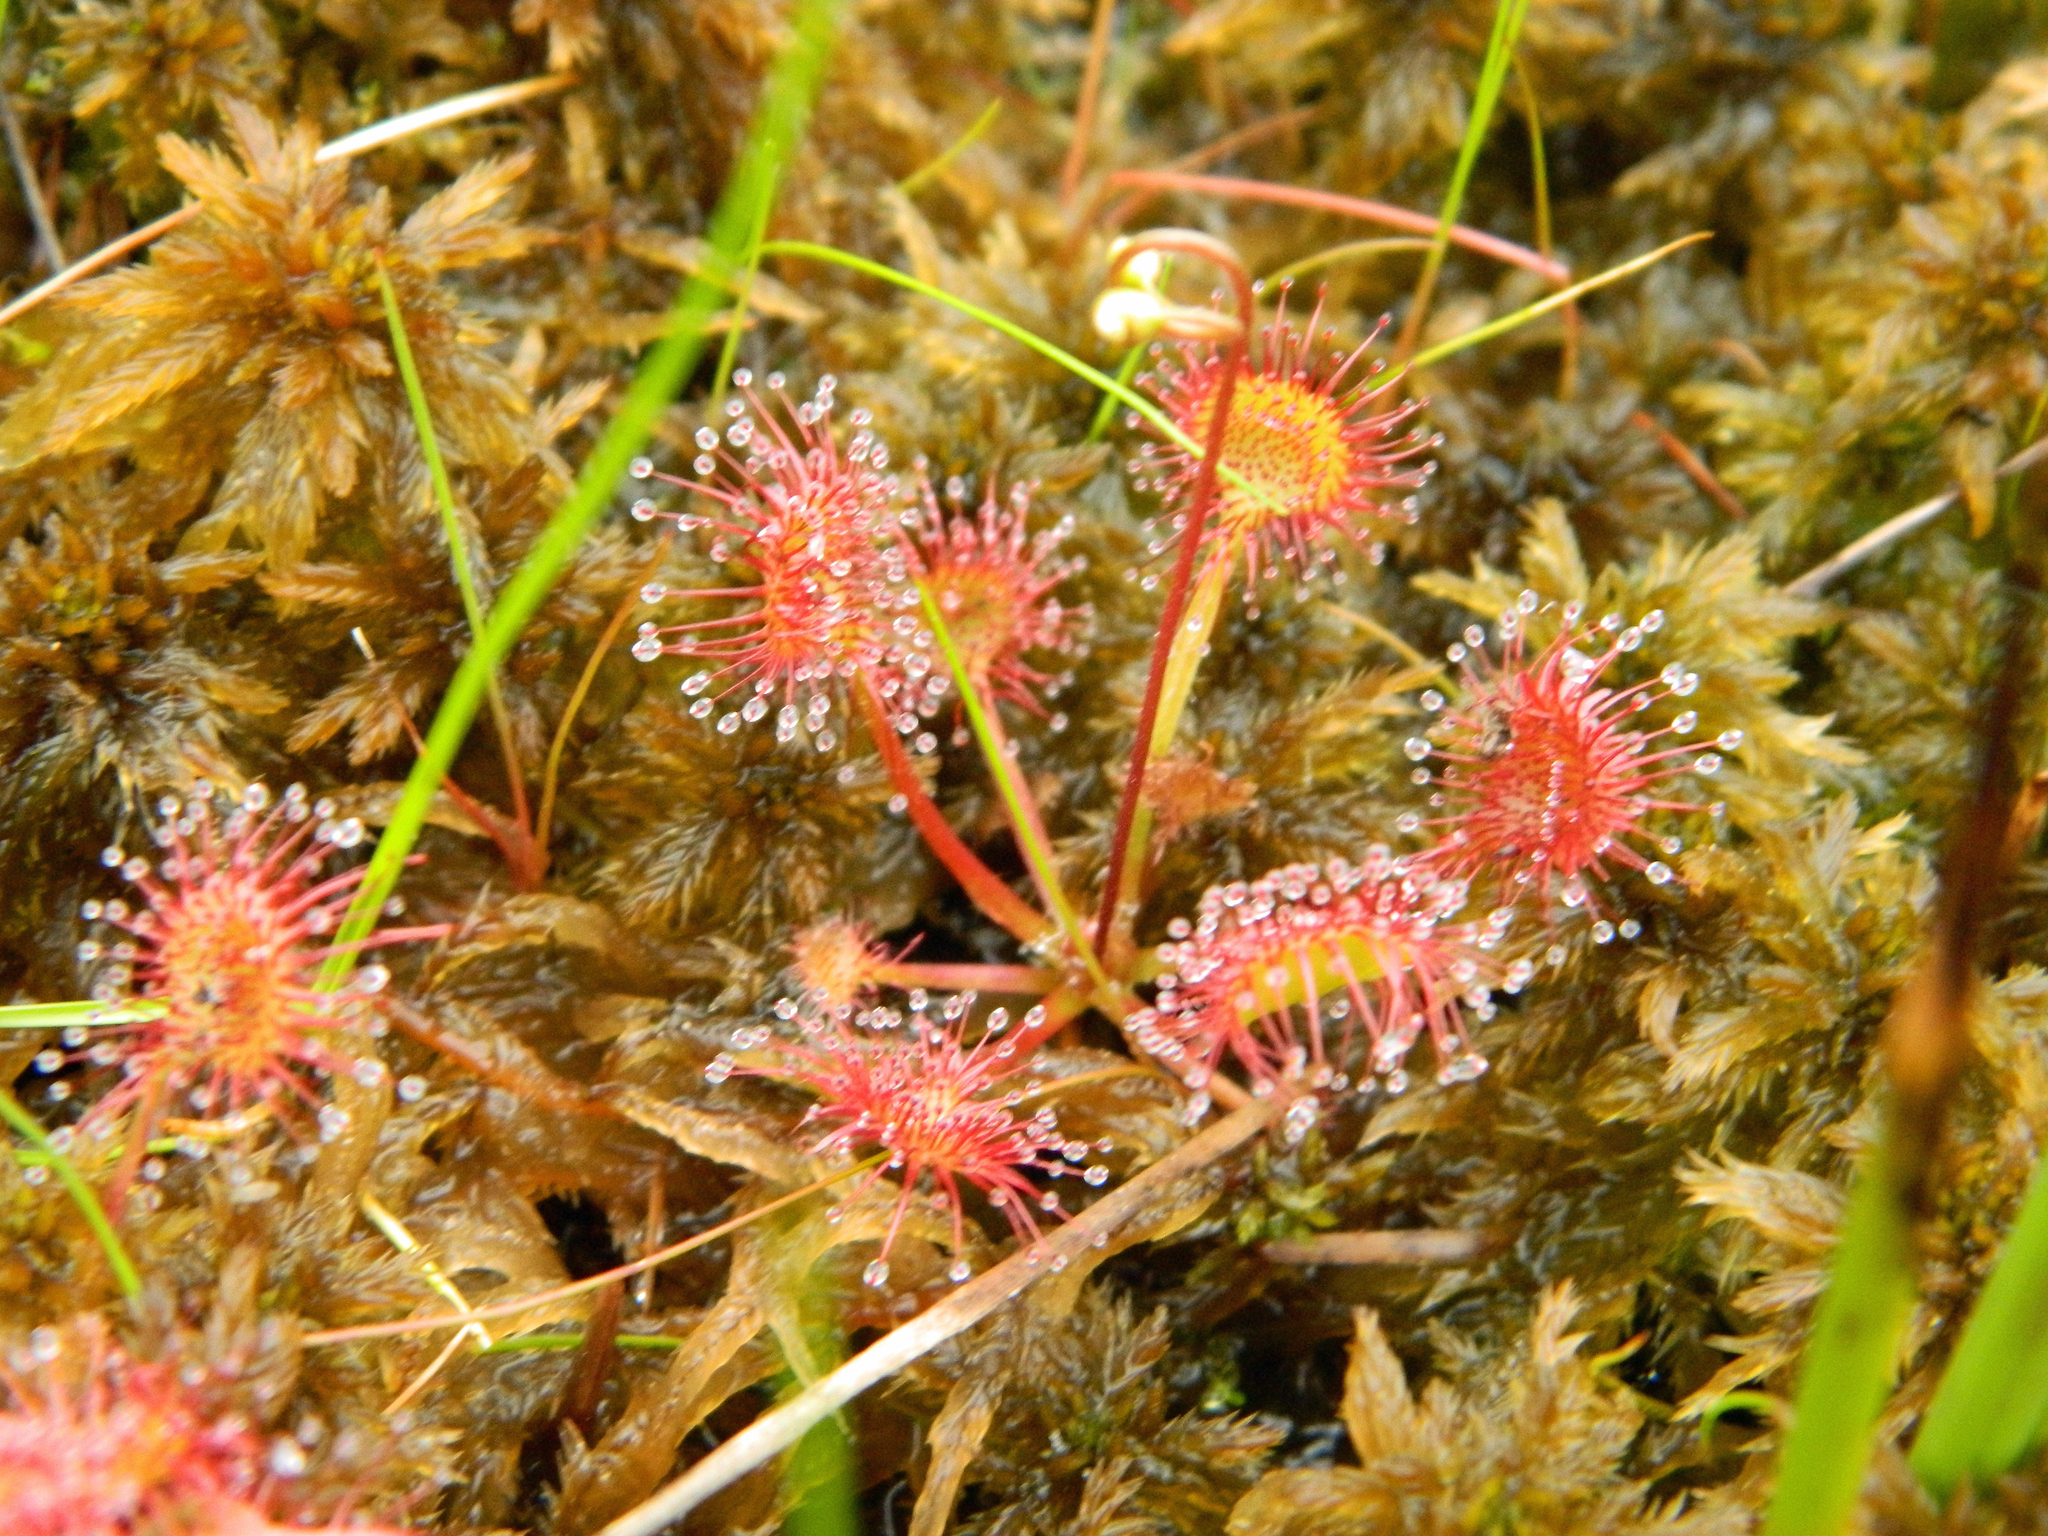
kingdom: Plantae
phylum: Tracheophyta
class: Magnoliopsida
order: Caryophyllales
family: Droseraceae
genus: Drosera
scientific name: Drosera rotundifolia
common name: Round-leaved sundew
